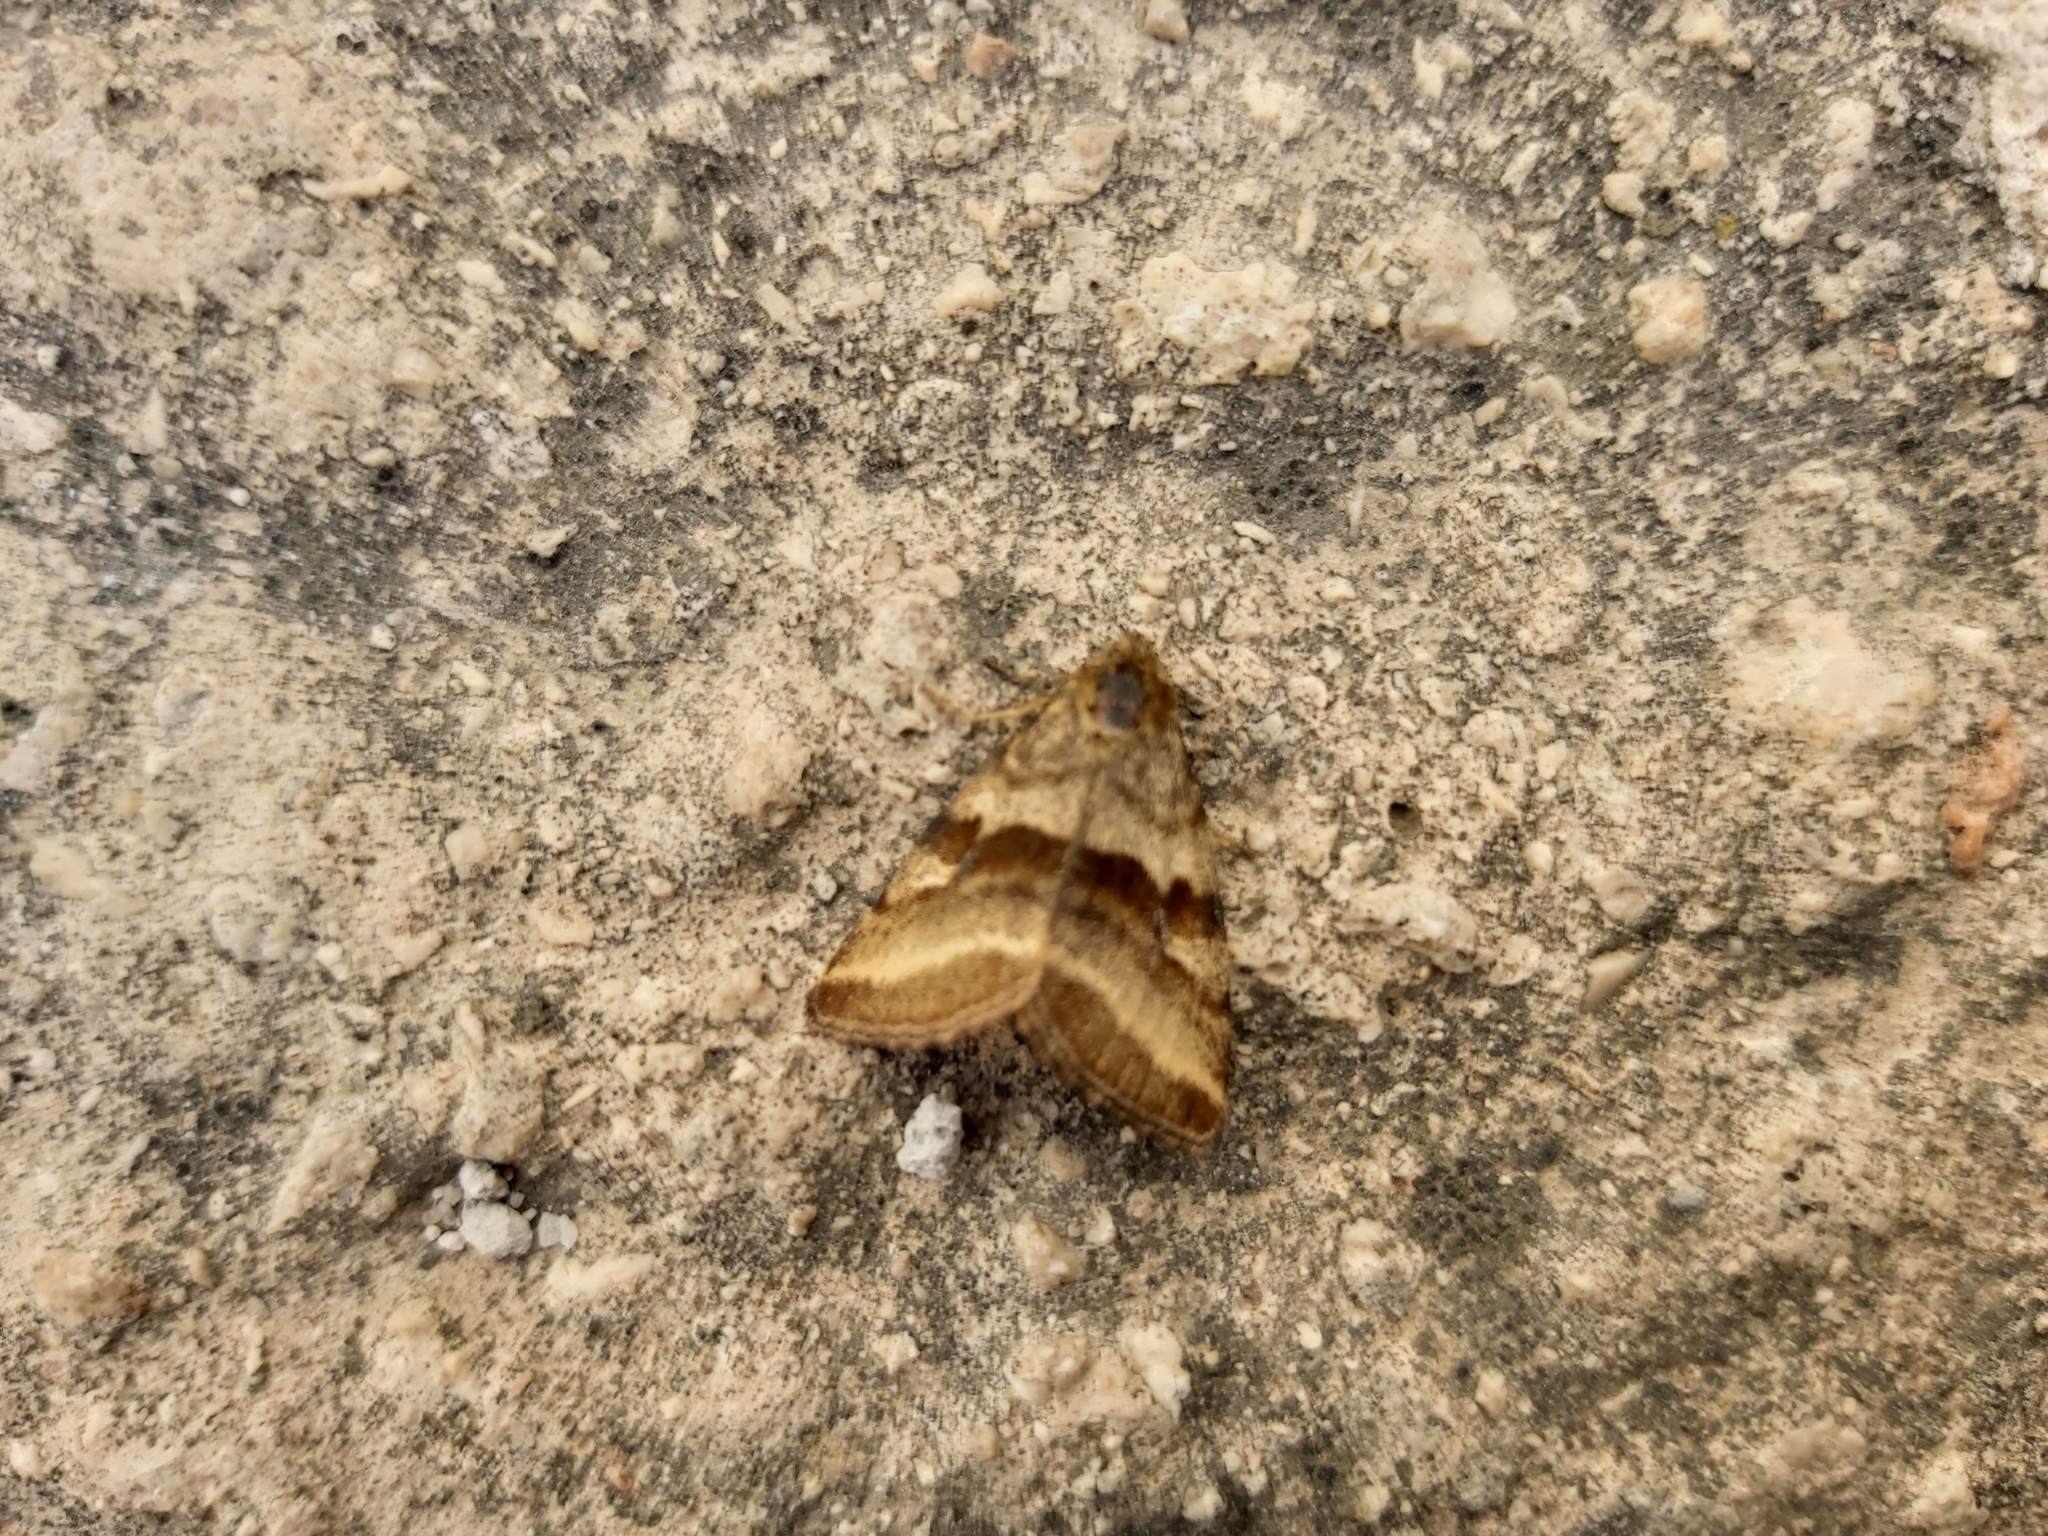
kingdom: Animalia
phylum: Arthropoda
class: Insecta
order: Lepidoptera
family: Noctuidae
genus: Synthymia
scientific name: Synthymia fixa
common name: Goldwing
